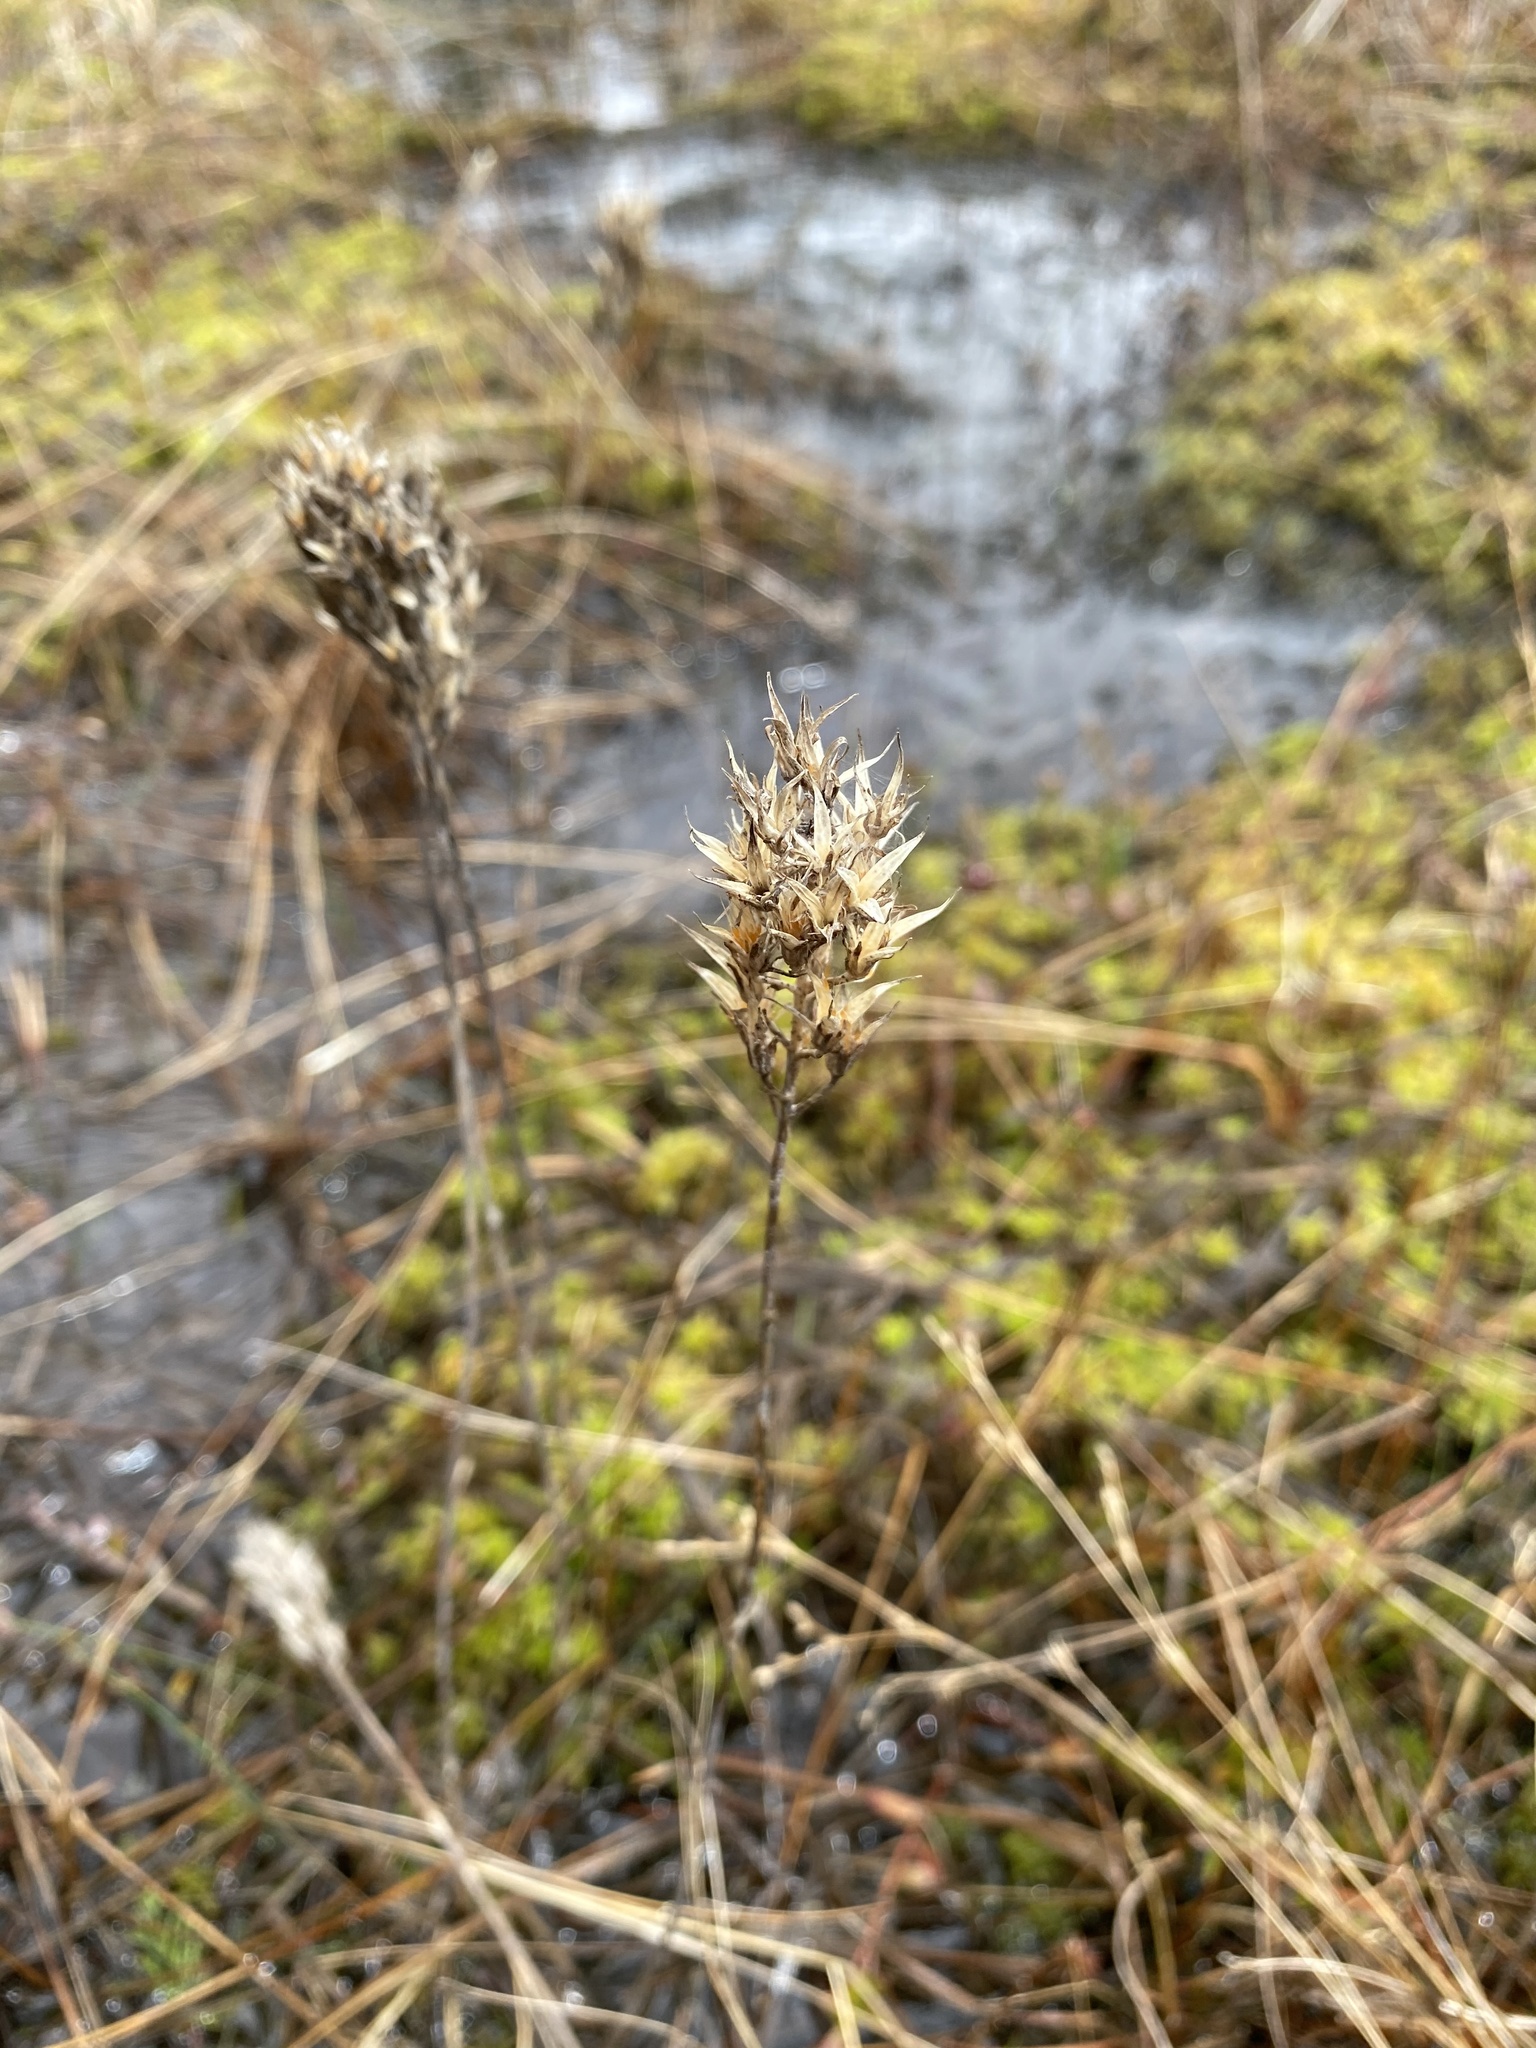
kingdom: Plantae
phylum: Tracheophyta
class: Liliopsida
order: Dioscoreales
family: Nartheciaceae
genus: Narthecium
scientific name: Narthecium americanum
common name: Bog-asphodel
